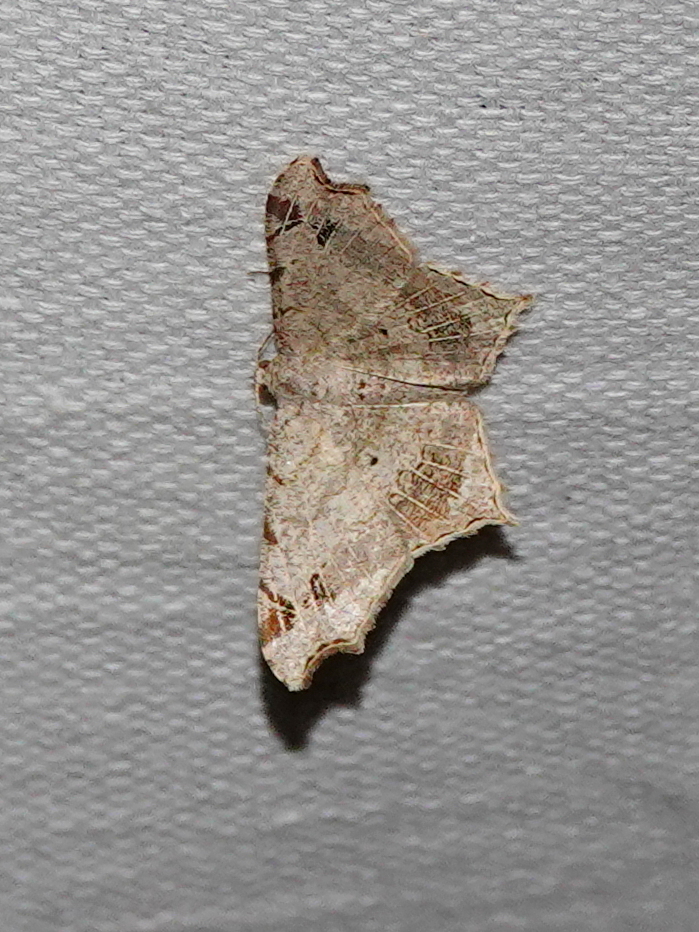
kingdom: Animalia
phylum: Arthropoda
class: Insecta
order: Lepidoptera
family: Geometridae
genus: Chiasmia
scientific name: Chiasmia emersaria
